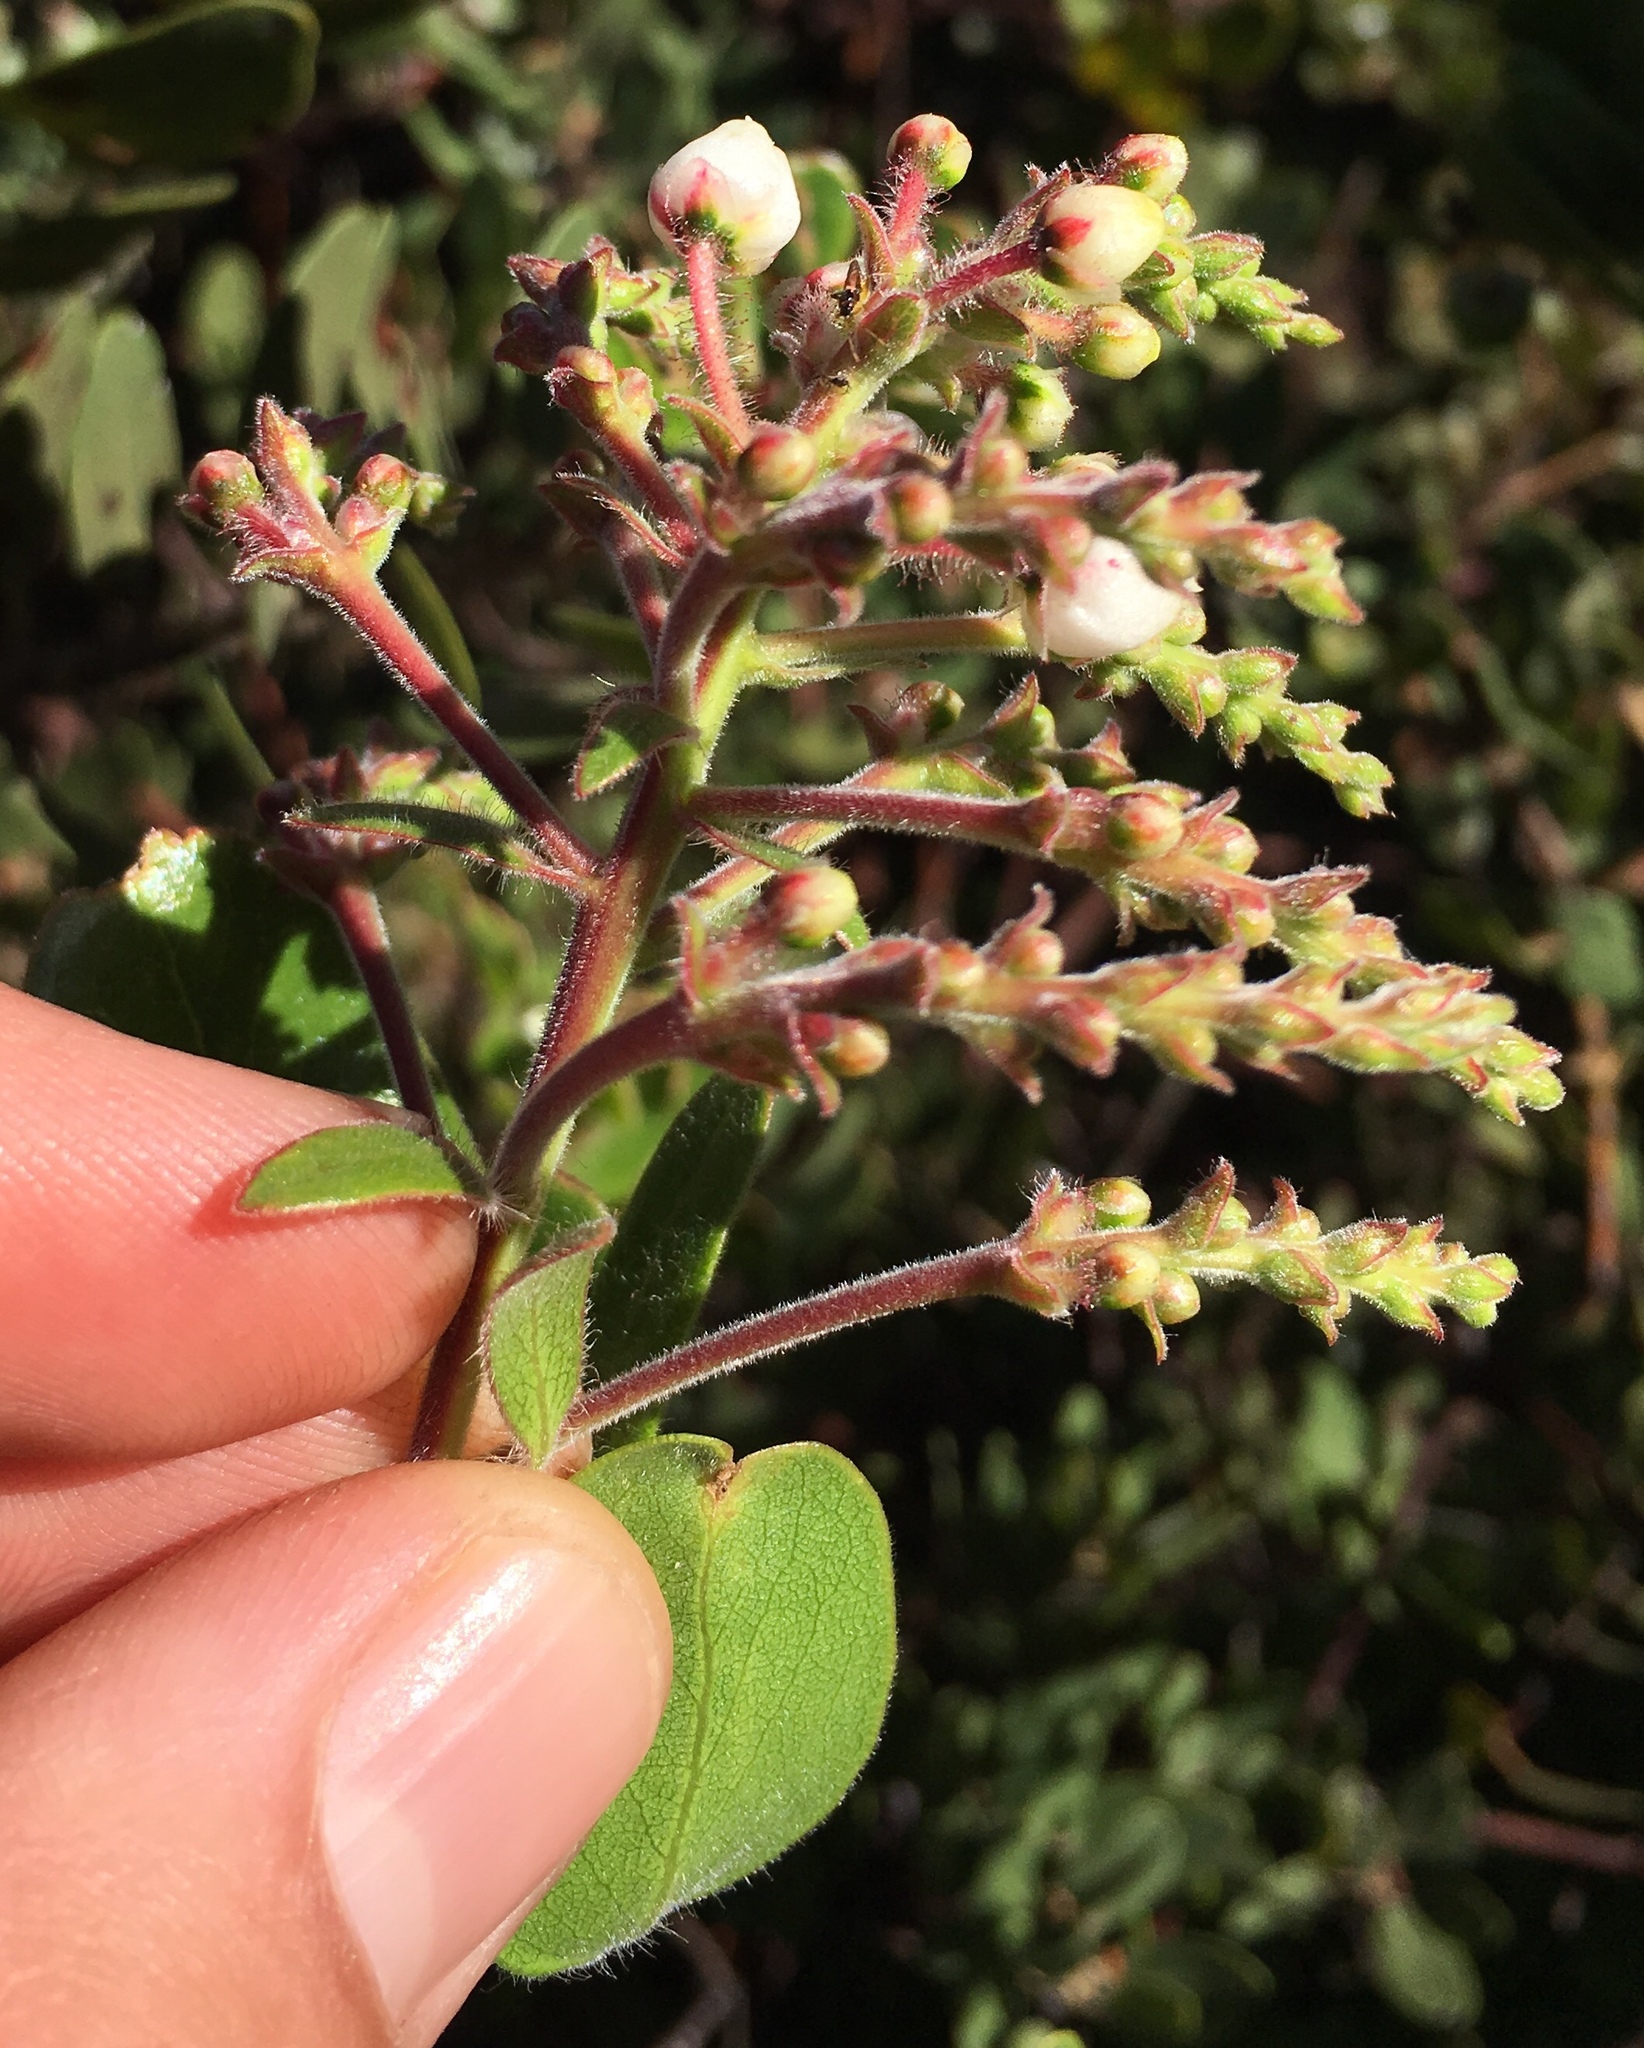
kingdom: Plantae
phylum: Tracheophyta
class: Magnoliopsida
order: Ericales
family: Ericaceae
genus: Arctostaphylos
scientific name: Arctostaphylos insularis
